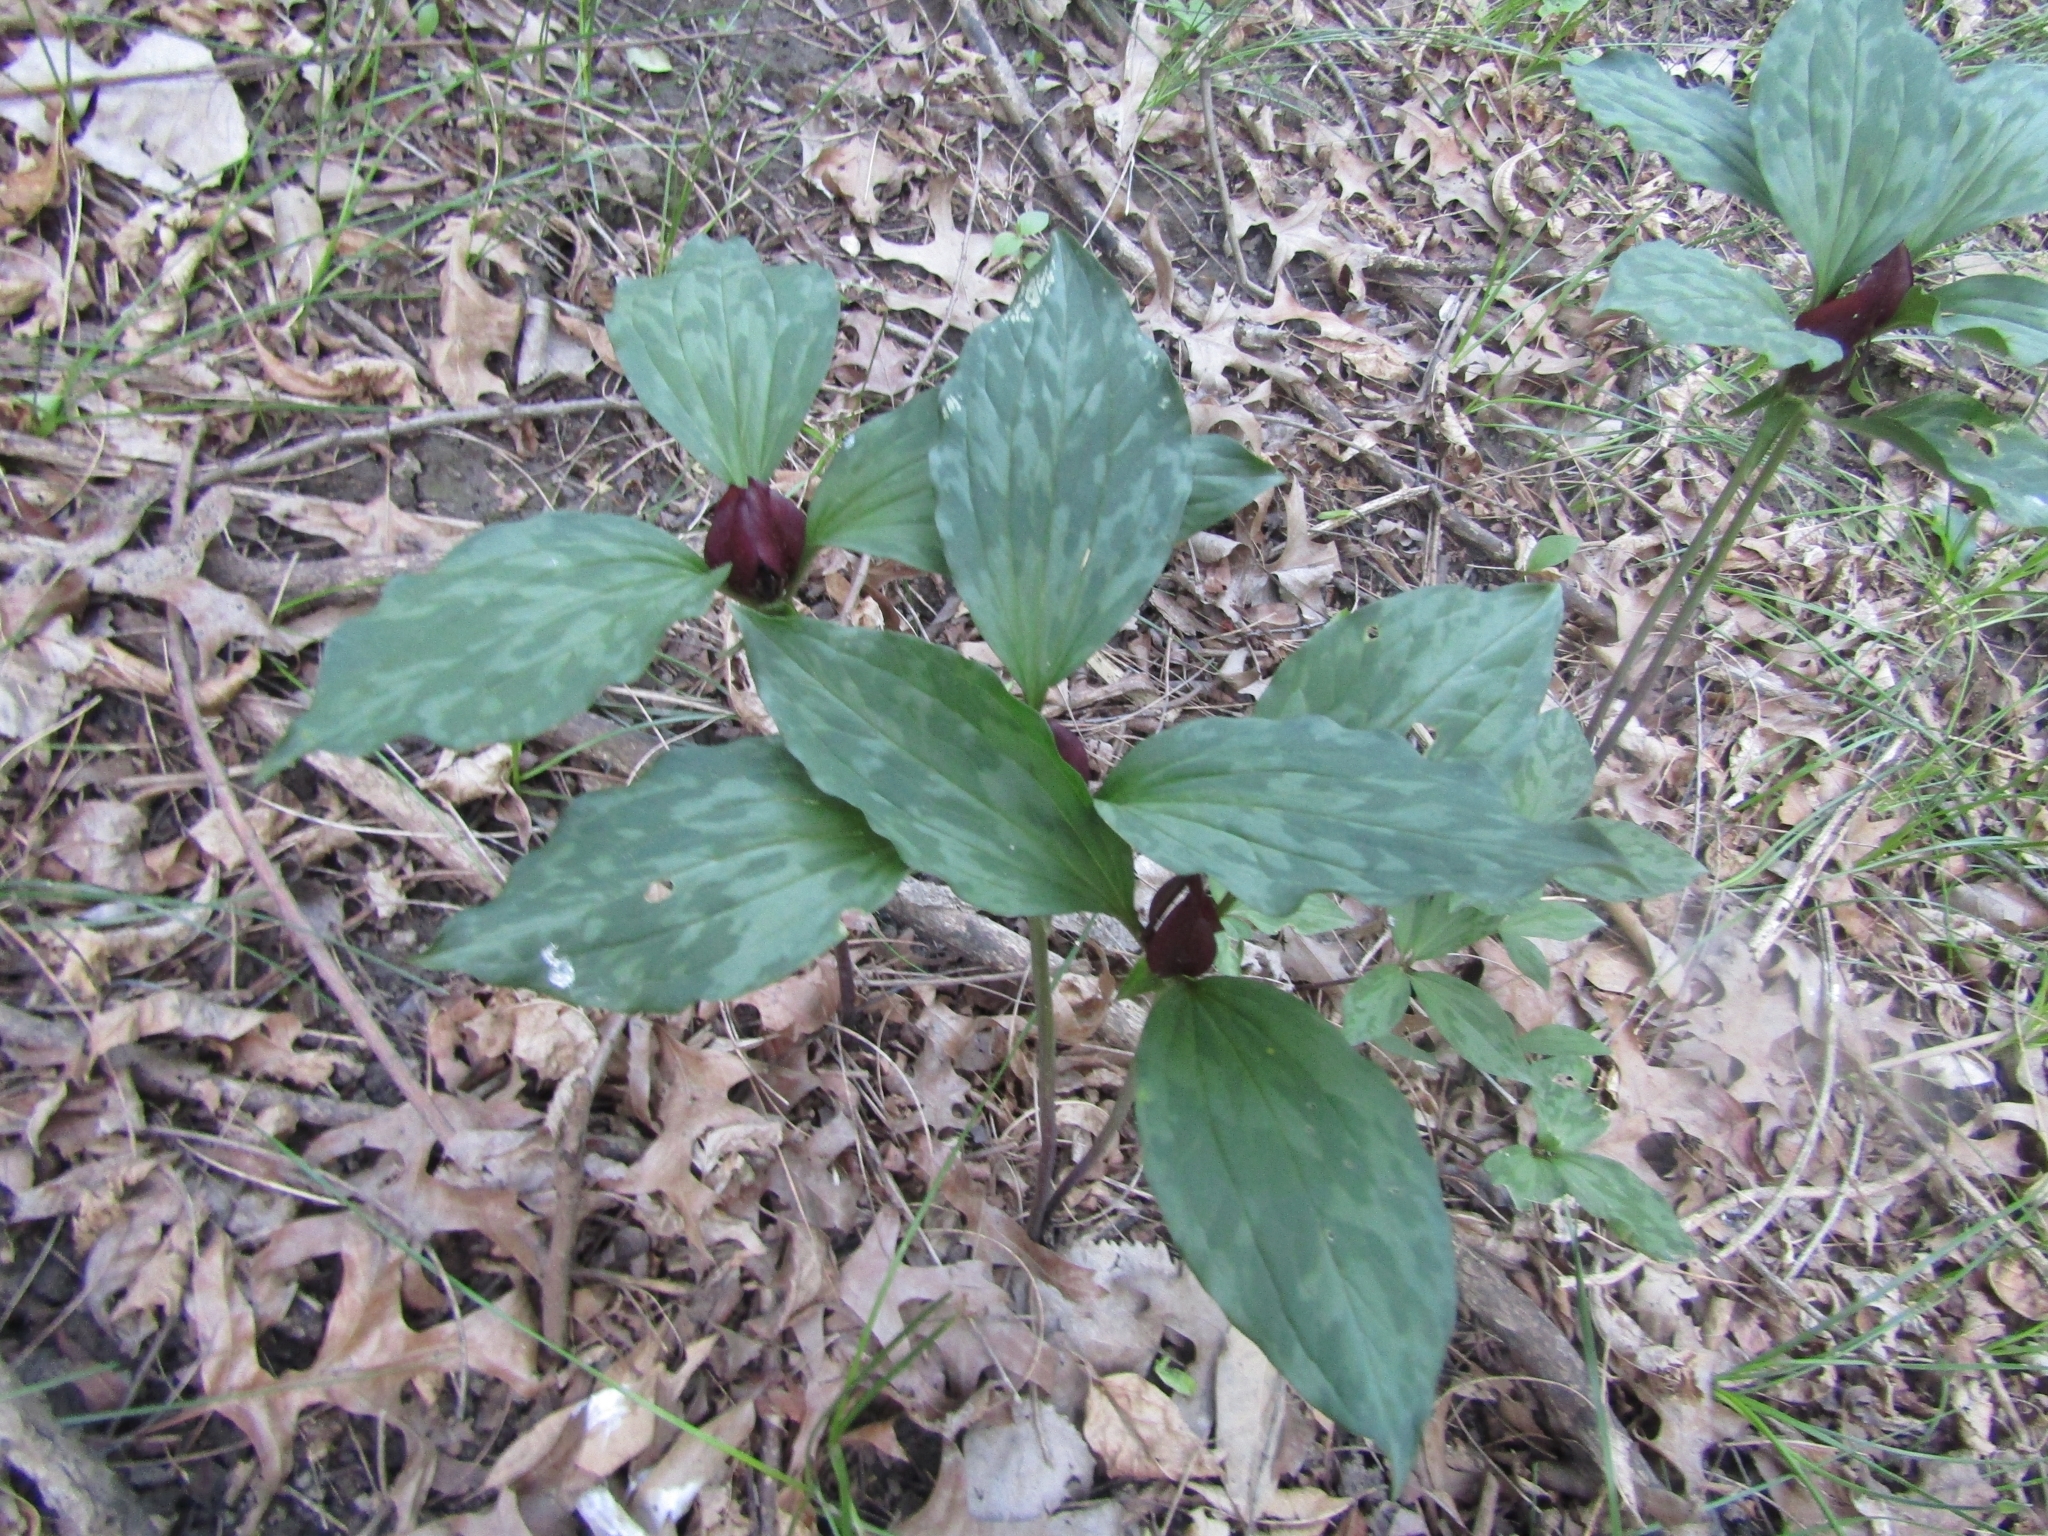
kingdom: Plantae
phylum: Tracheophyta
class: Liliopsida
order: Liliales
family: Melanthiaceae
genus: Trillium
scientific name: Trillium recurvatum
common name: Bloody butcher
